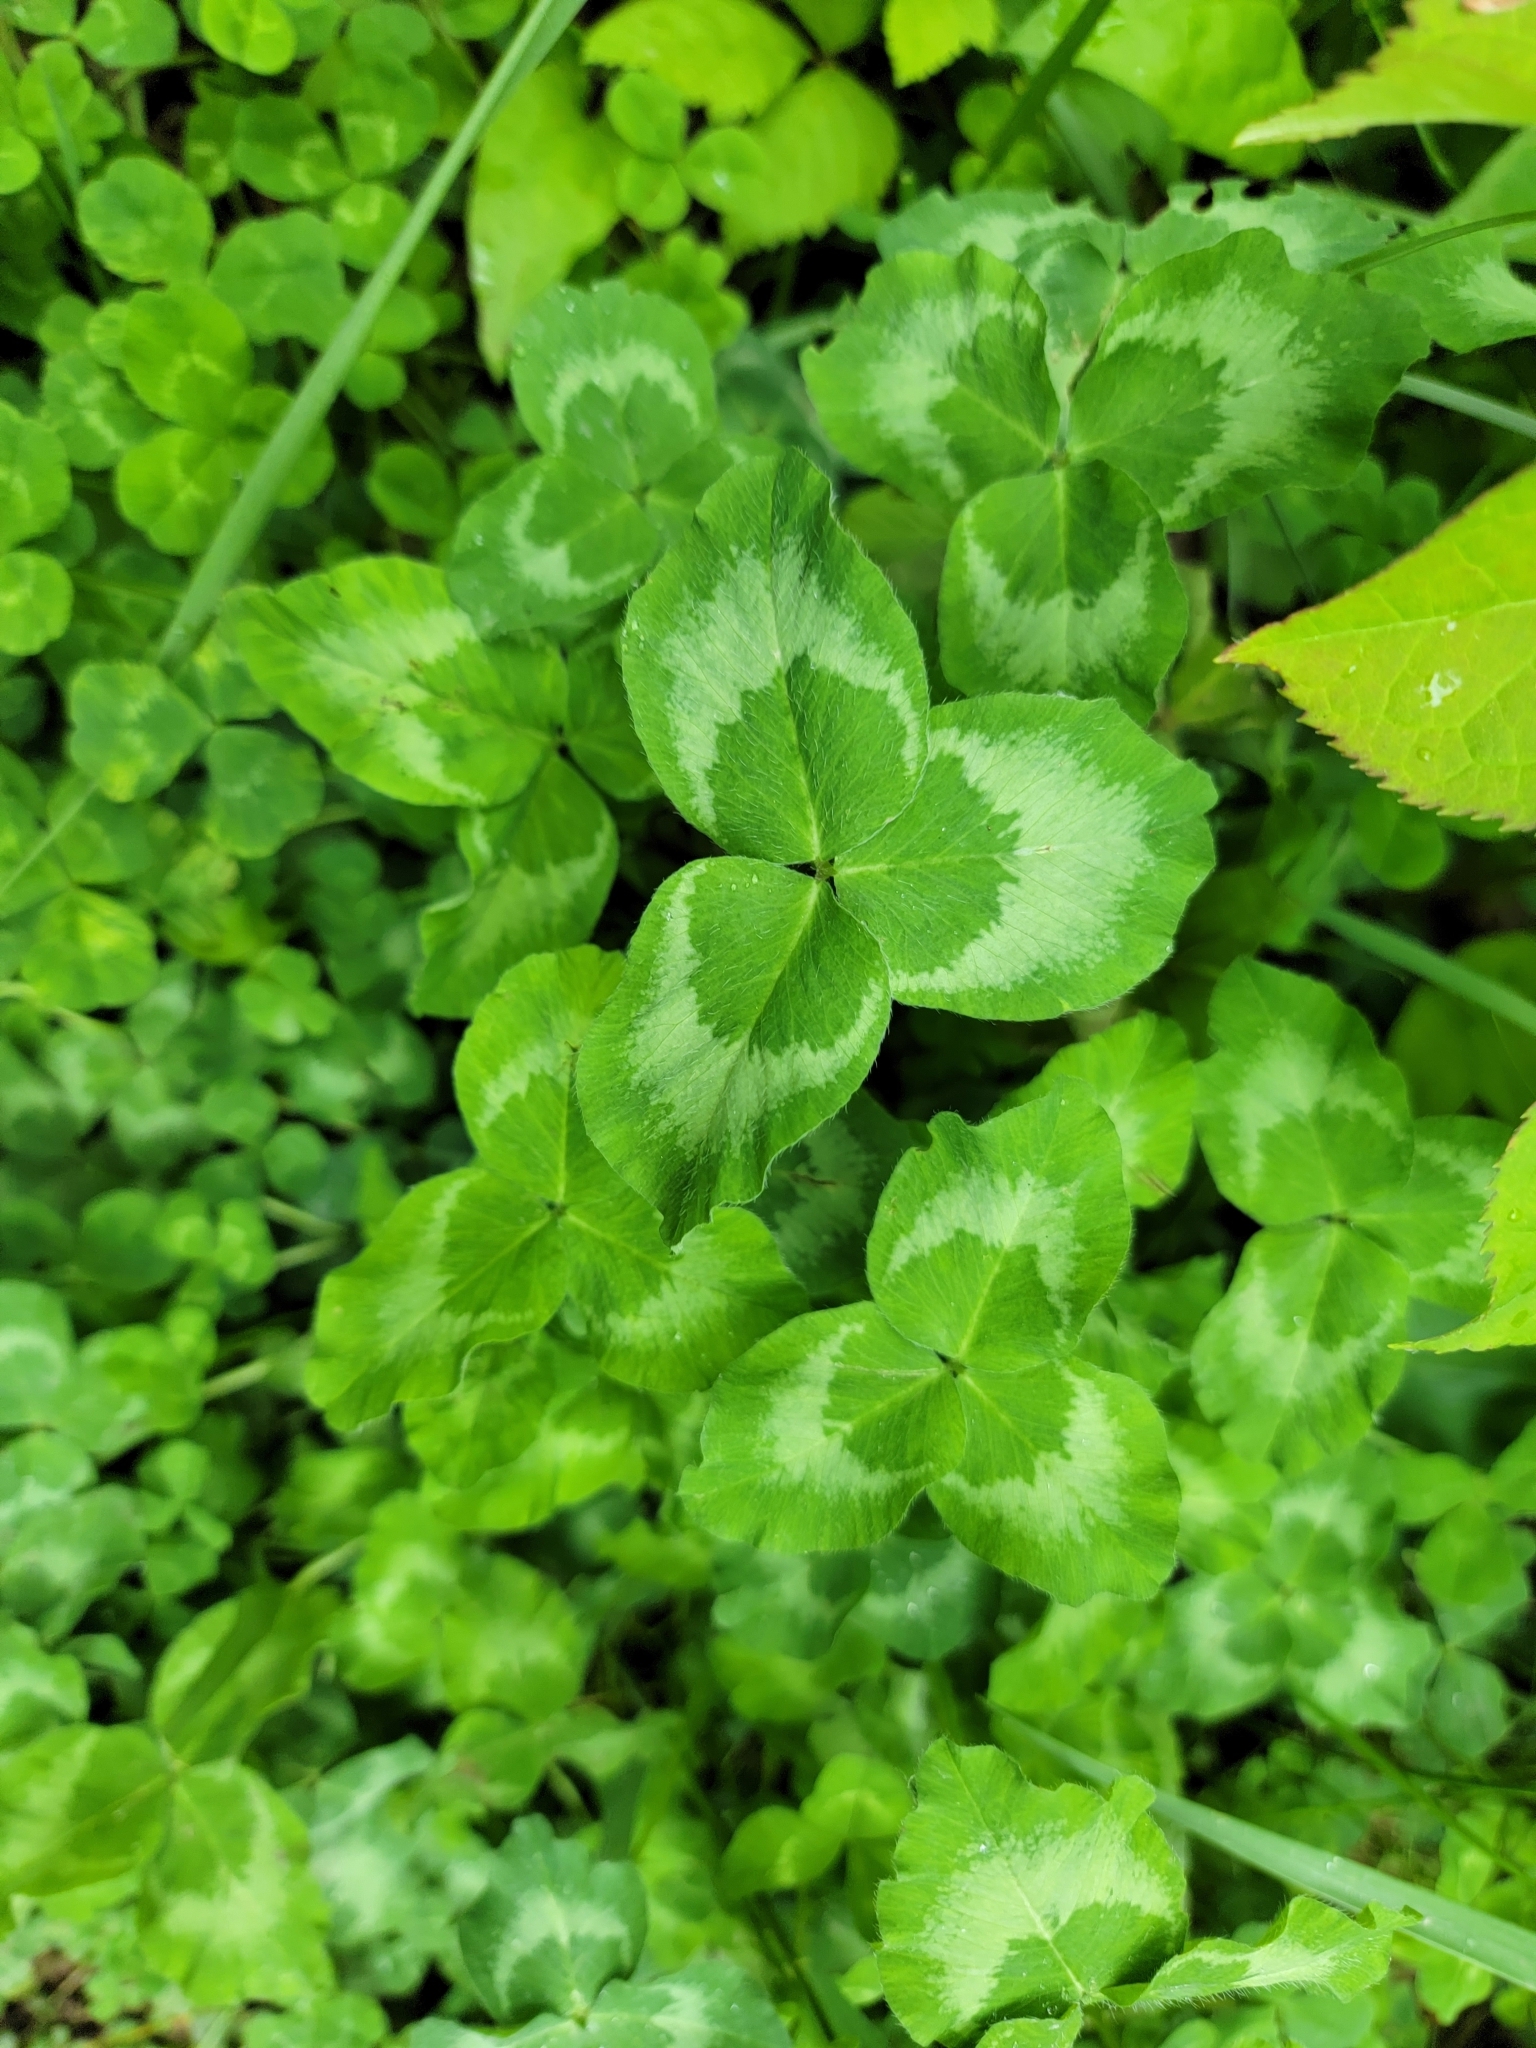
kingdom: Plantae
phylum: Tracheophyta
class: Magnoliopsida
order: Fabales
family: Fabaceae
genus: Trifolium
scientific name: Trifolium pratense
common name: Red clover
